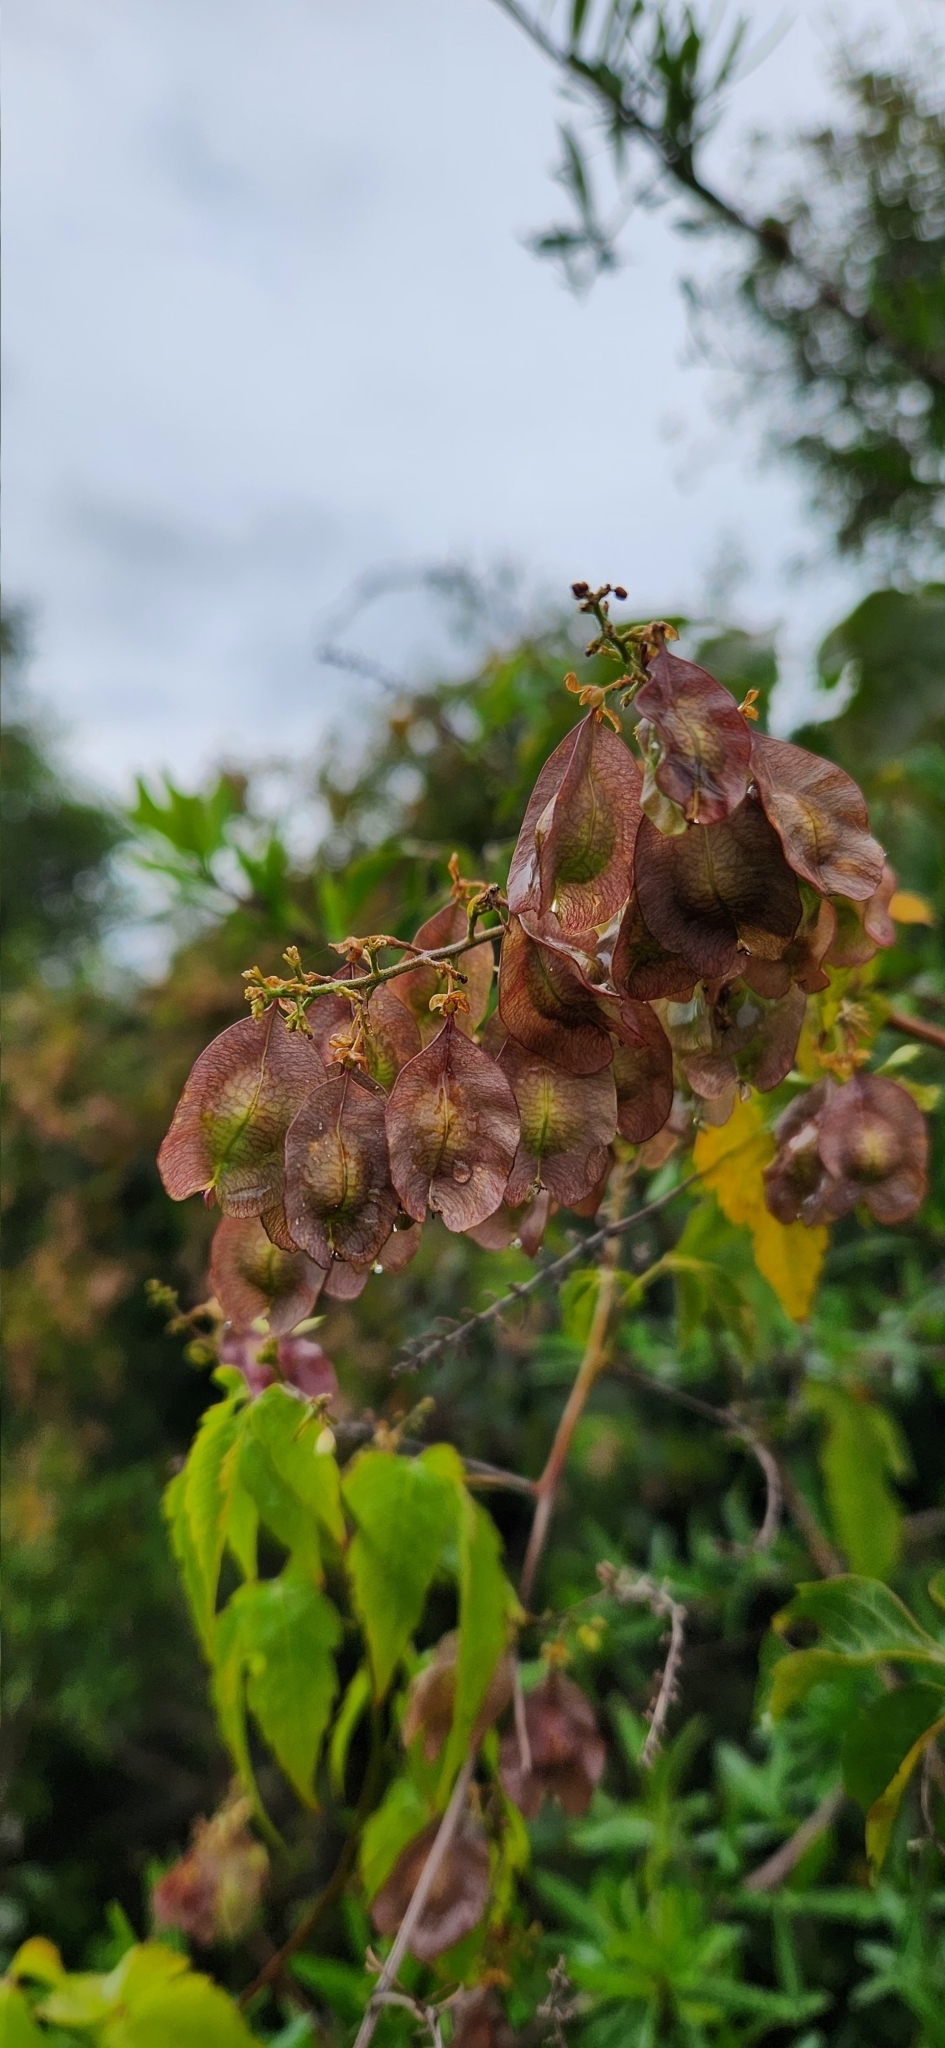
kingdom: Plantae
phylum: Tracheophyta
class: Magnoliopsida
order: Sapindales
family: Sapindaceae
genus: Urvillea
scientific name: Urvillea uniloba
